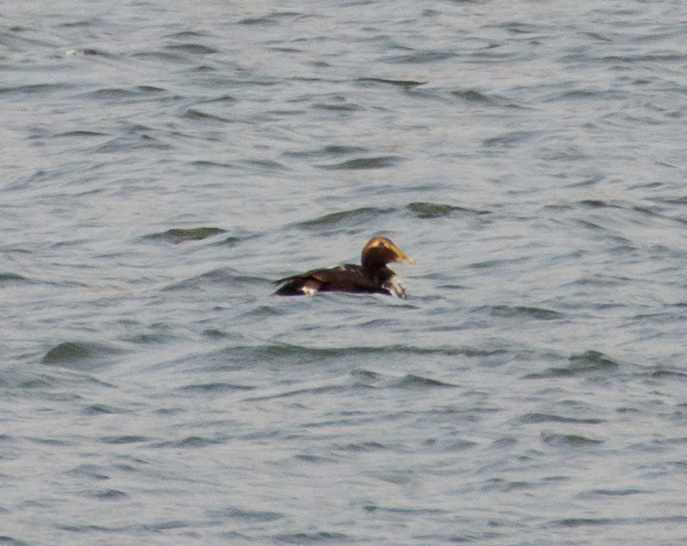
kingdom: Animalia
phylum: Chordata
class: Aves
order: Anseriformes
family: Anatidae
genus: Somateria
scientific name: Somateria mollissima
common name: Common eider
